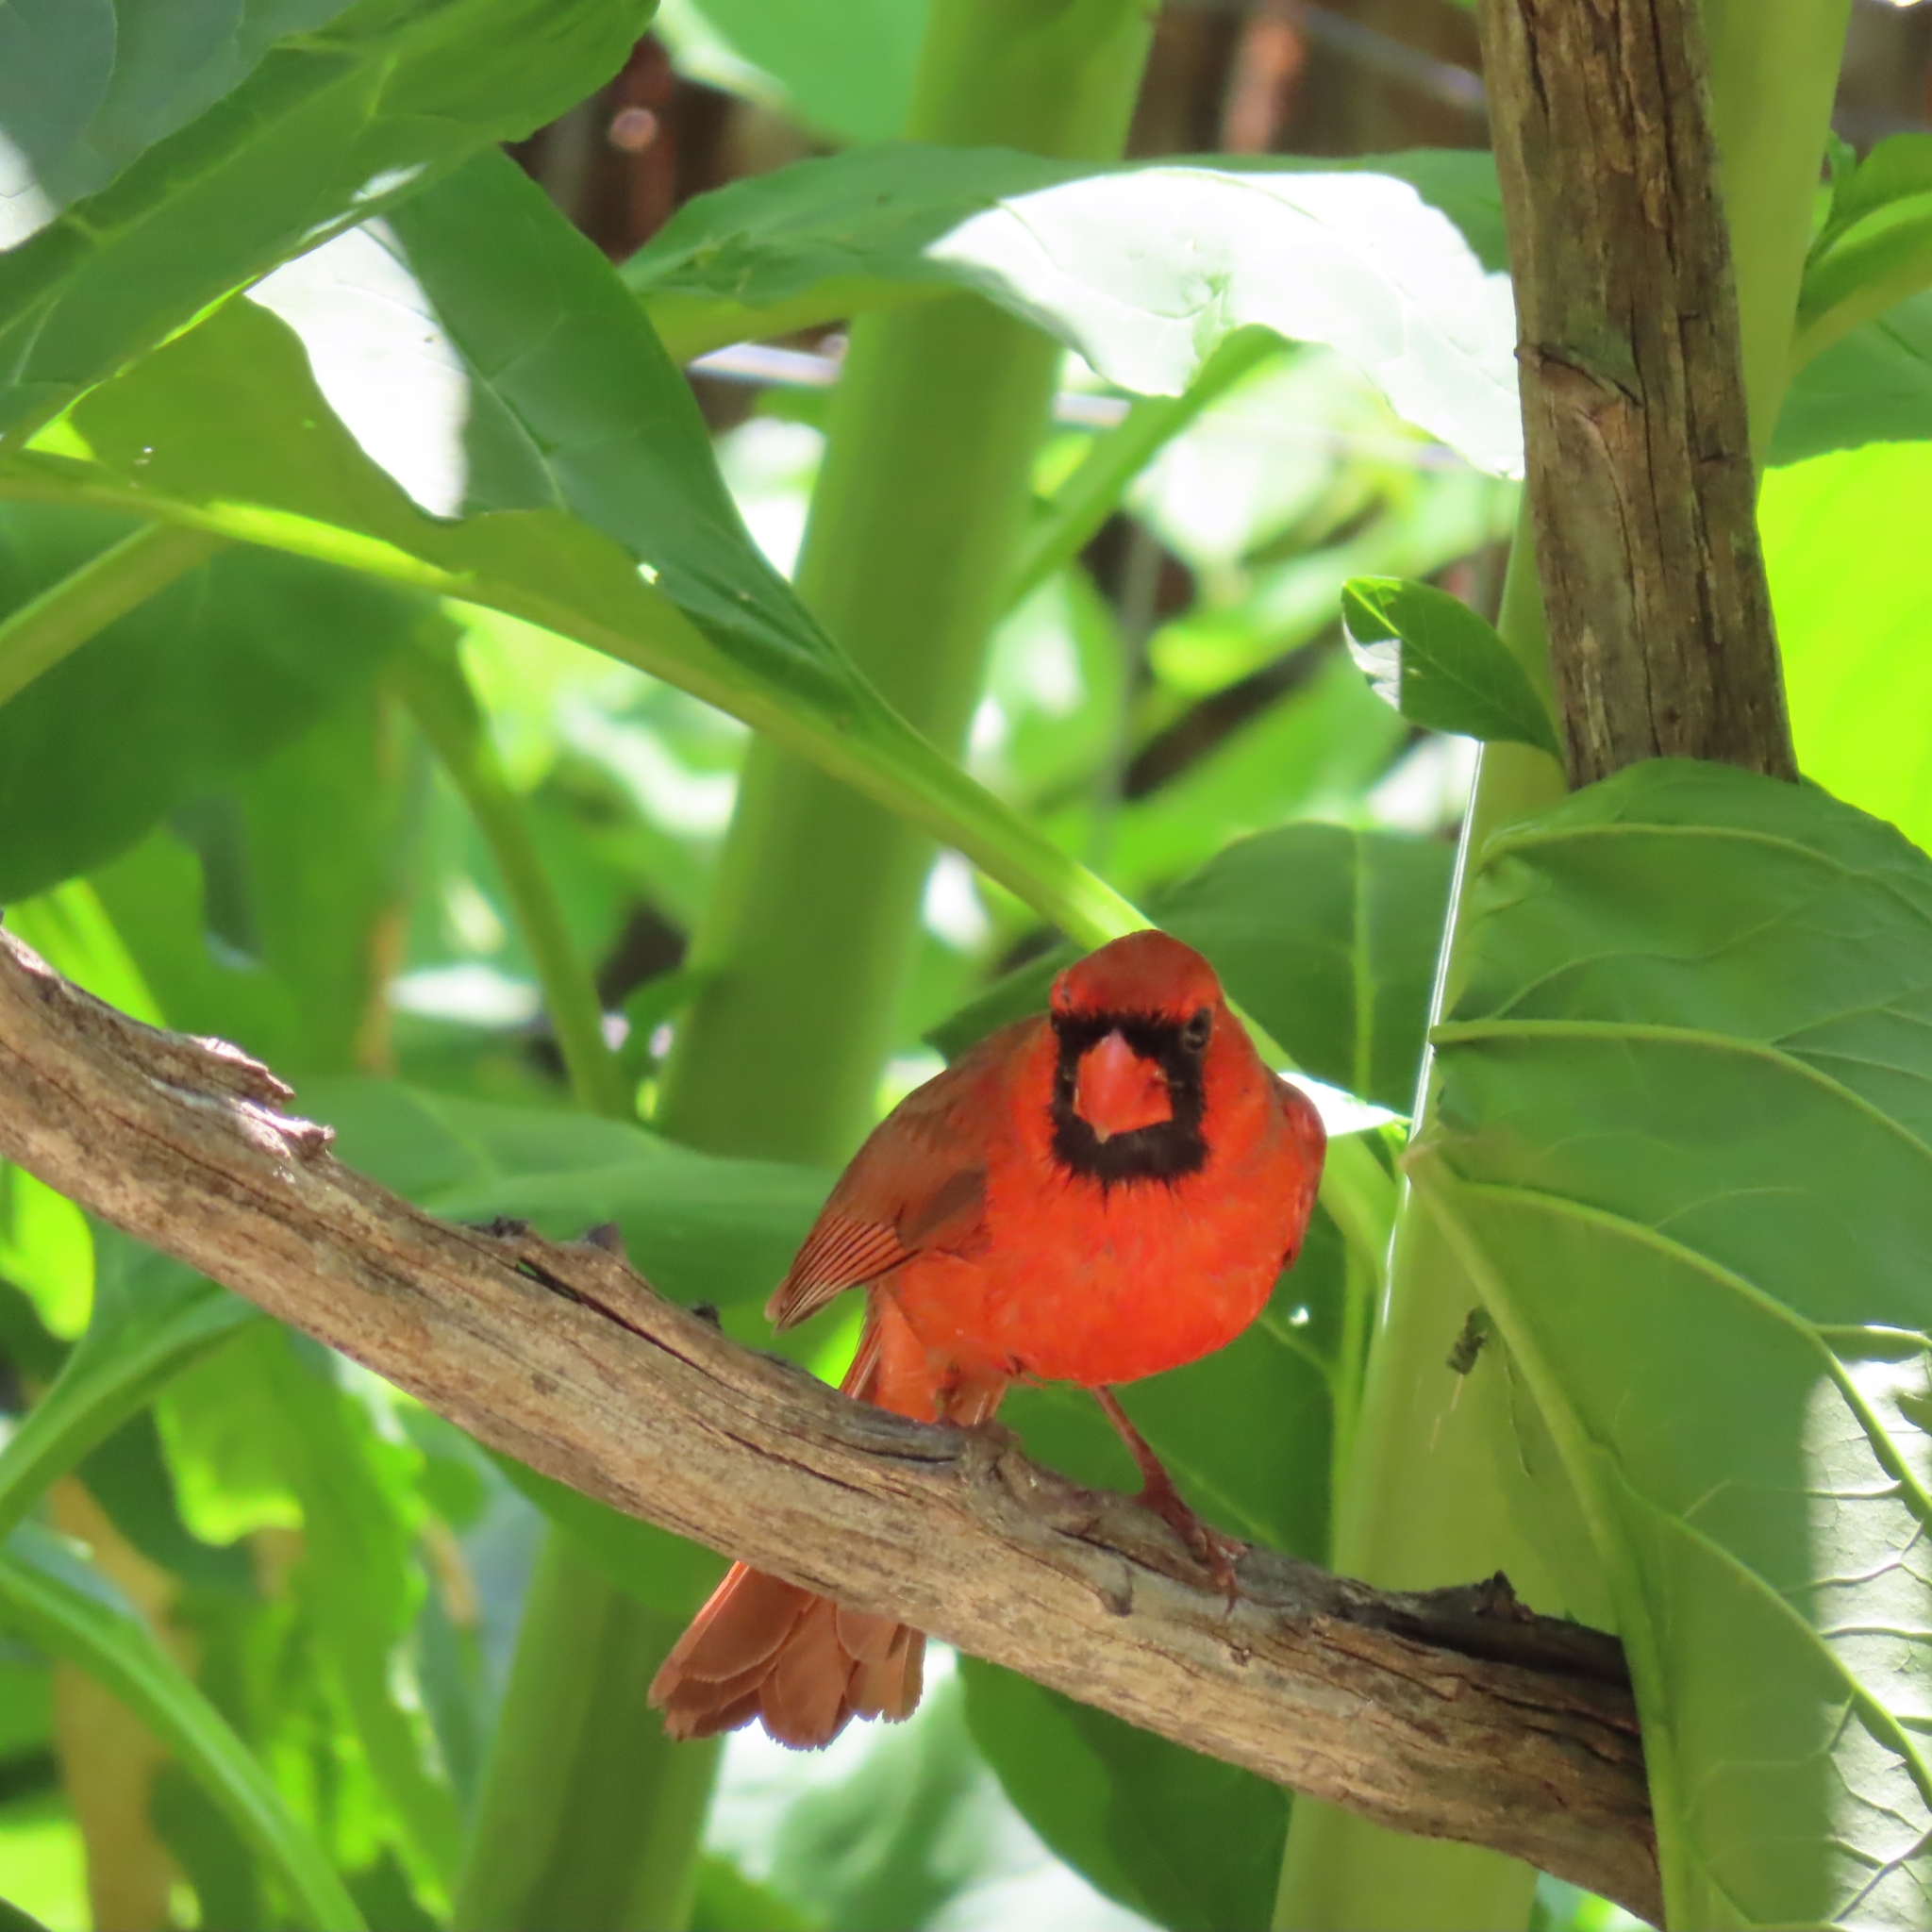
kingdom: Animalia
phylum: Chordata
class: Aves
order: Passeriformes
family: Cardinalidae
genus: Cardinalis
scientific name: Cardinalis cardinalis
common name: Northern cardinal
